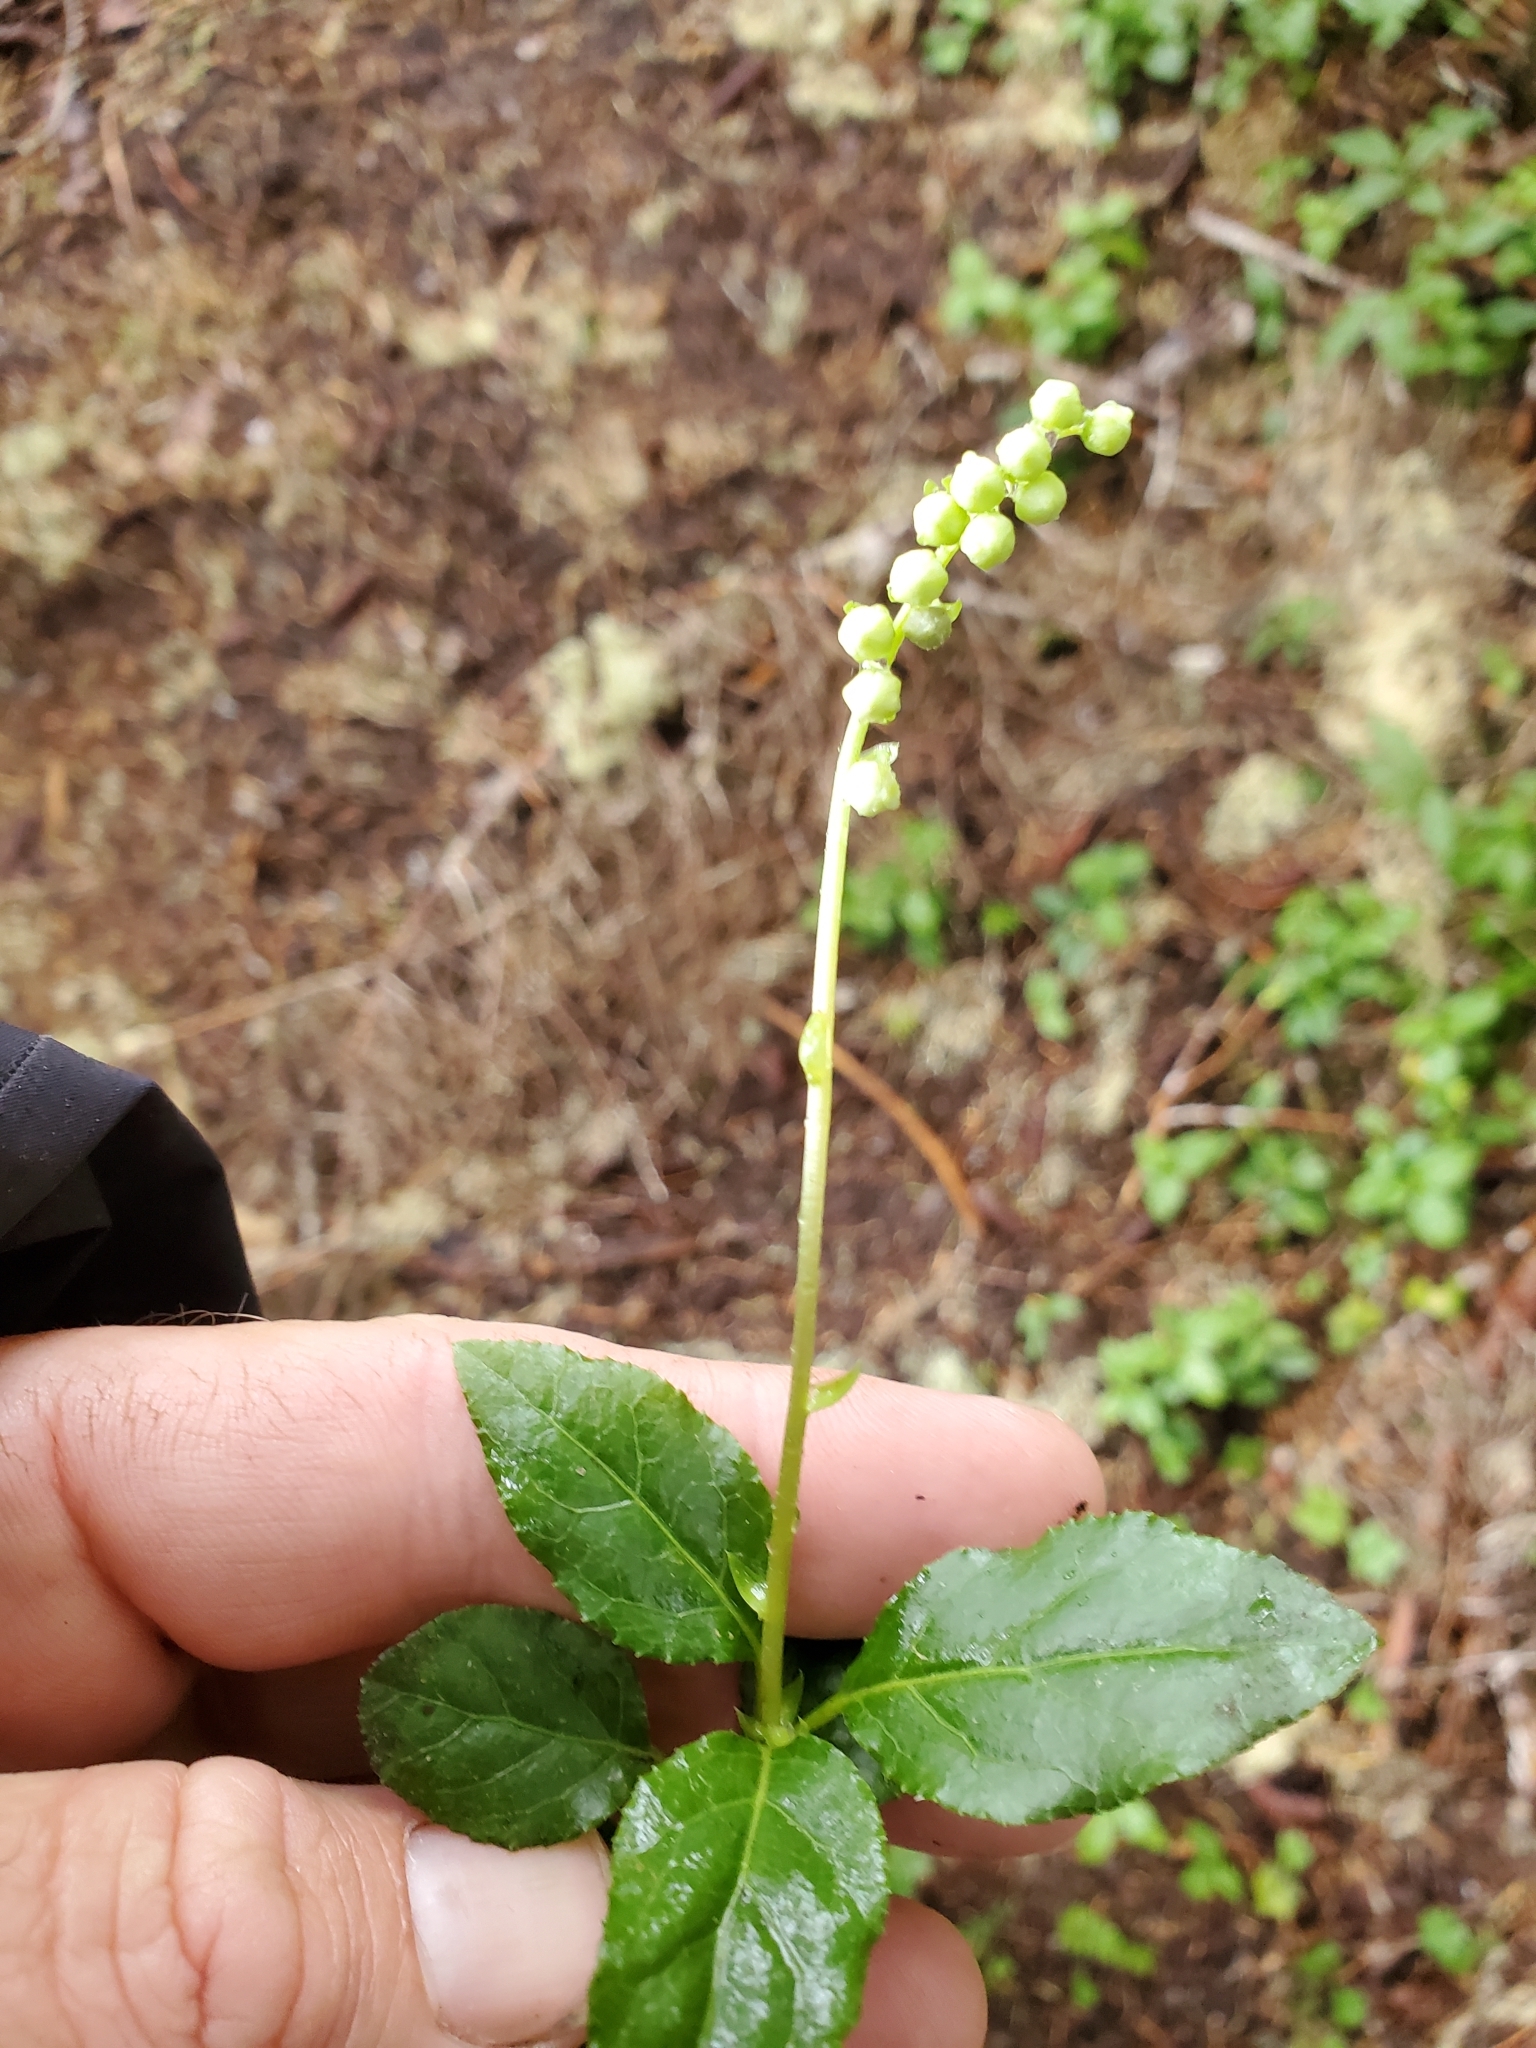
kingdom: Plantae
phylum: Tracheophyta
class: Magnoliopsida
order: Ericales
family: Ericaceae
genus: Orthilia
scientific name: Orthilia secunda
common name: One-sided orthilia
